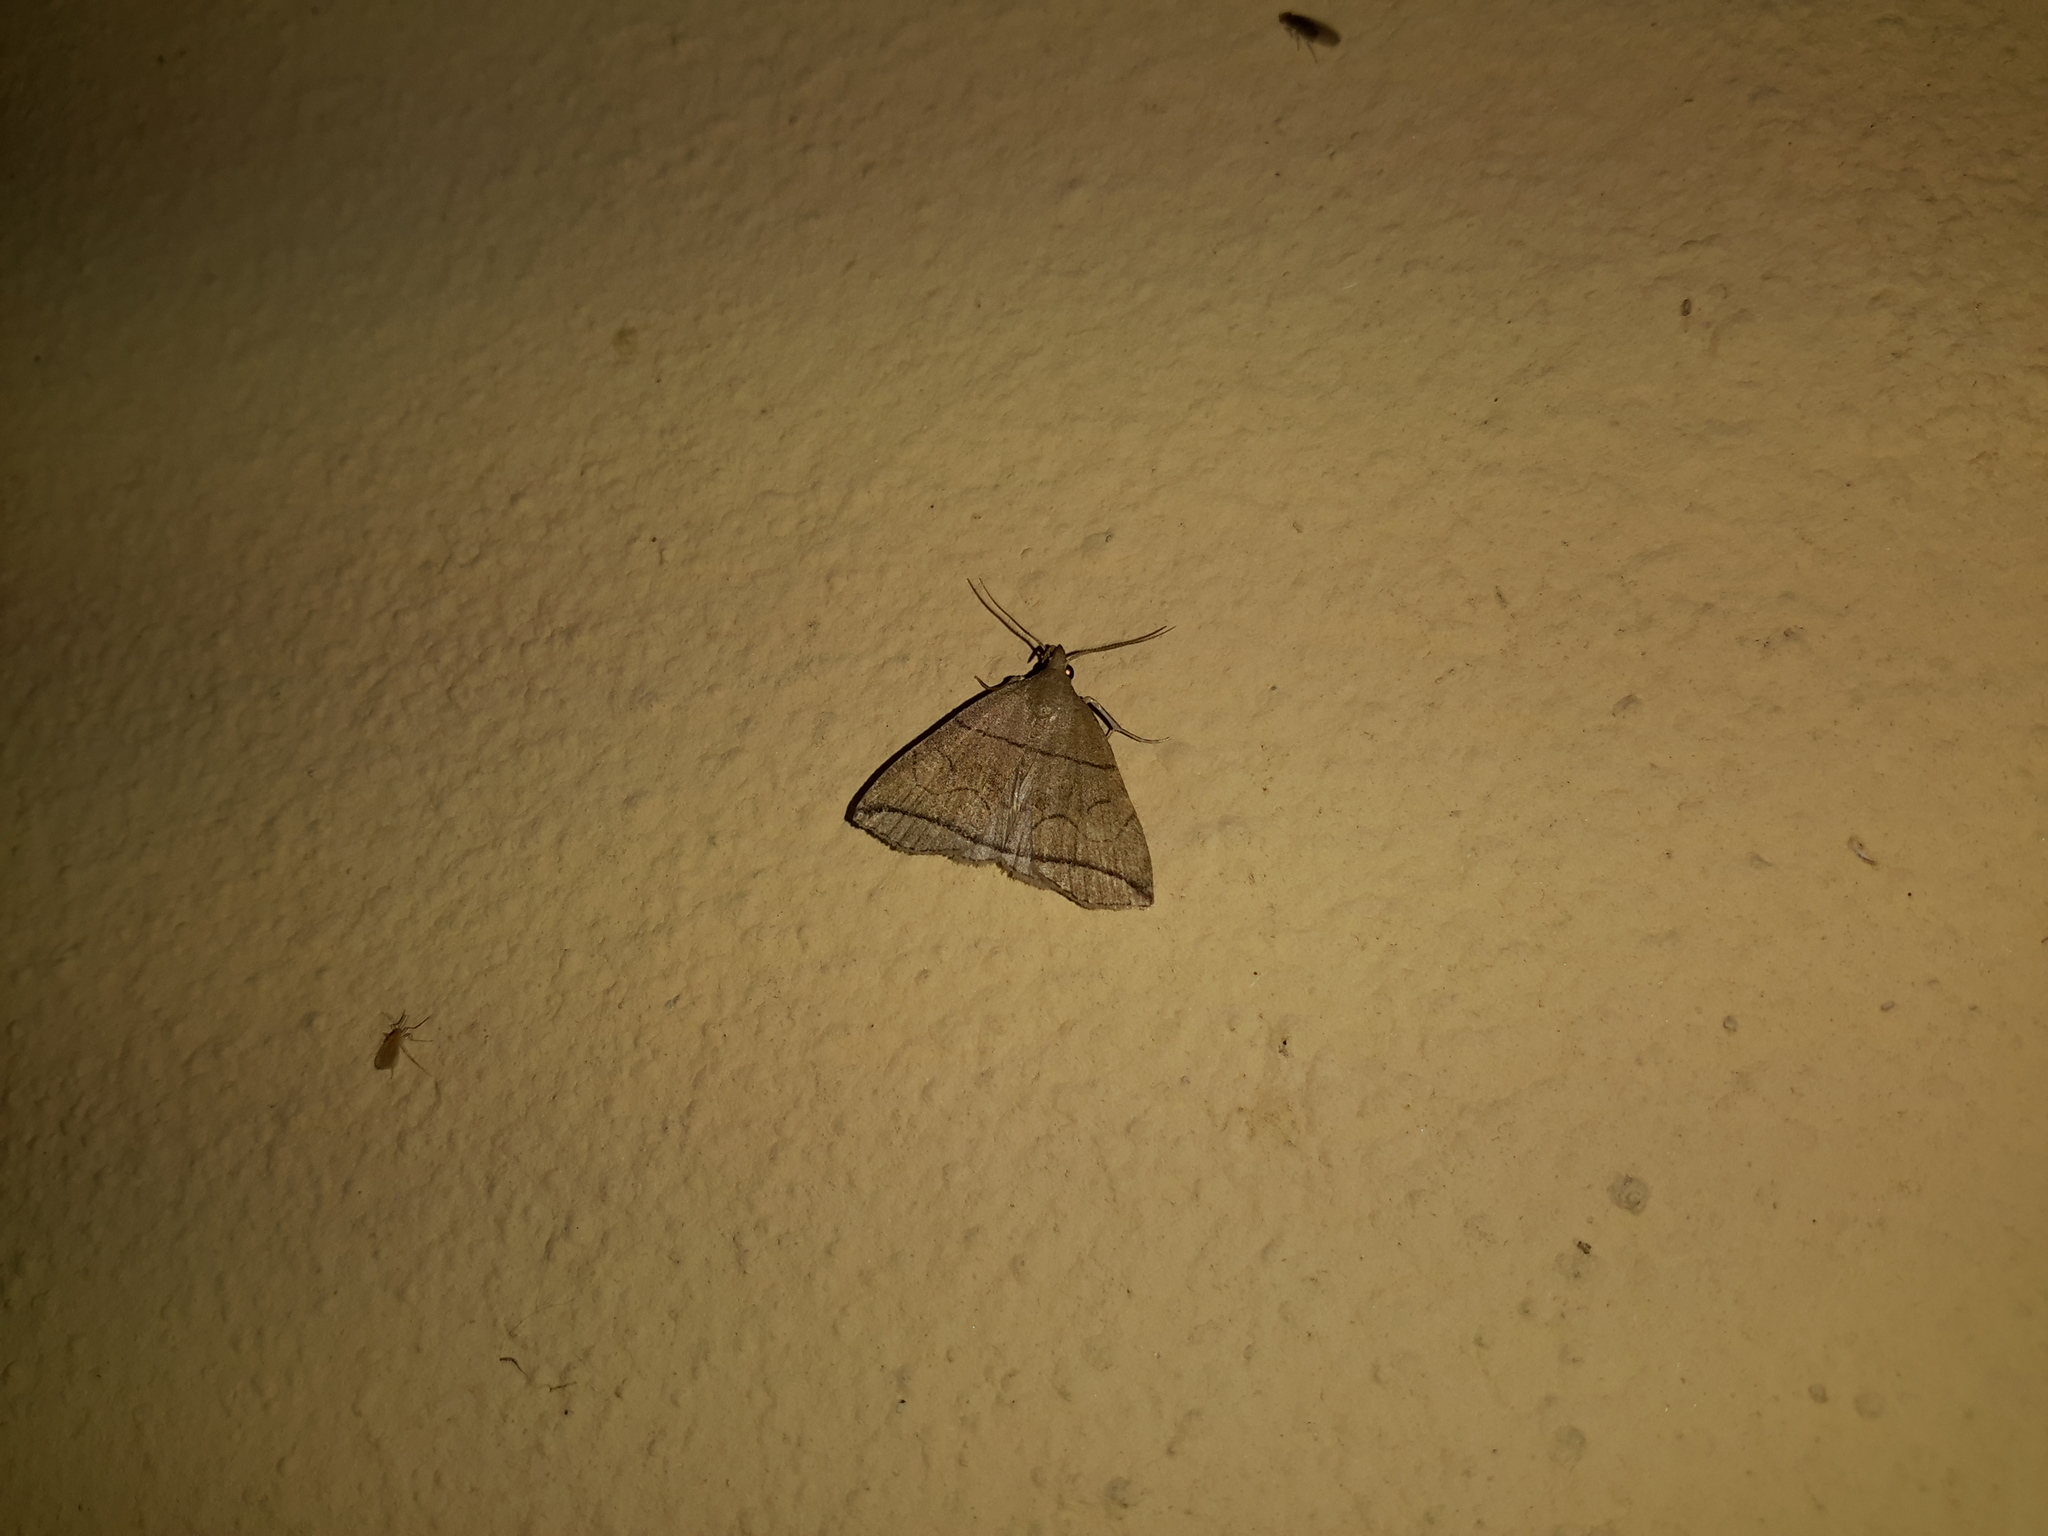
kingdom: Animalia
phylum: Arthropoda
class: Insecta
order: Lepidoptera
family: Erebidae
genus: Herminia
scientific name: Herminia grisealis
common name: Small fan-foot
